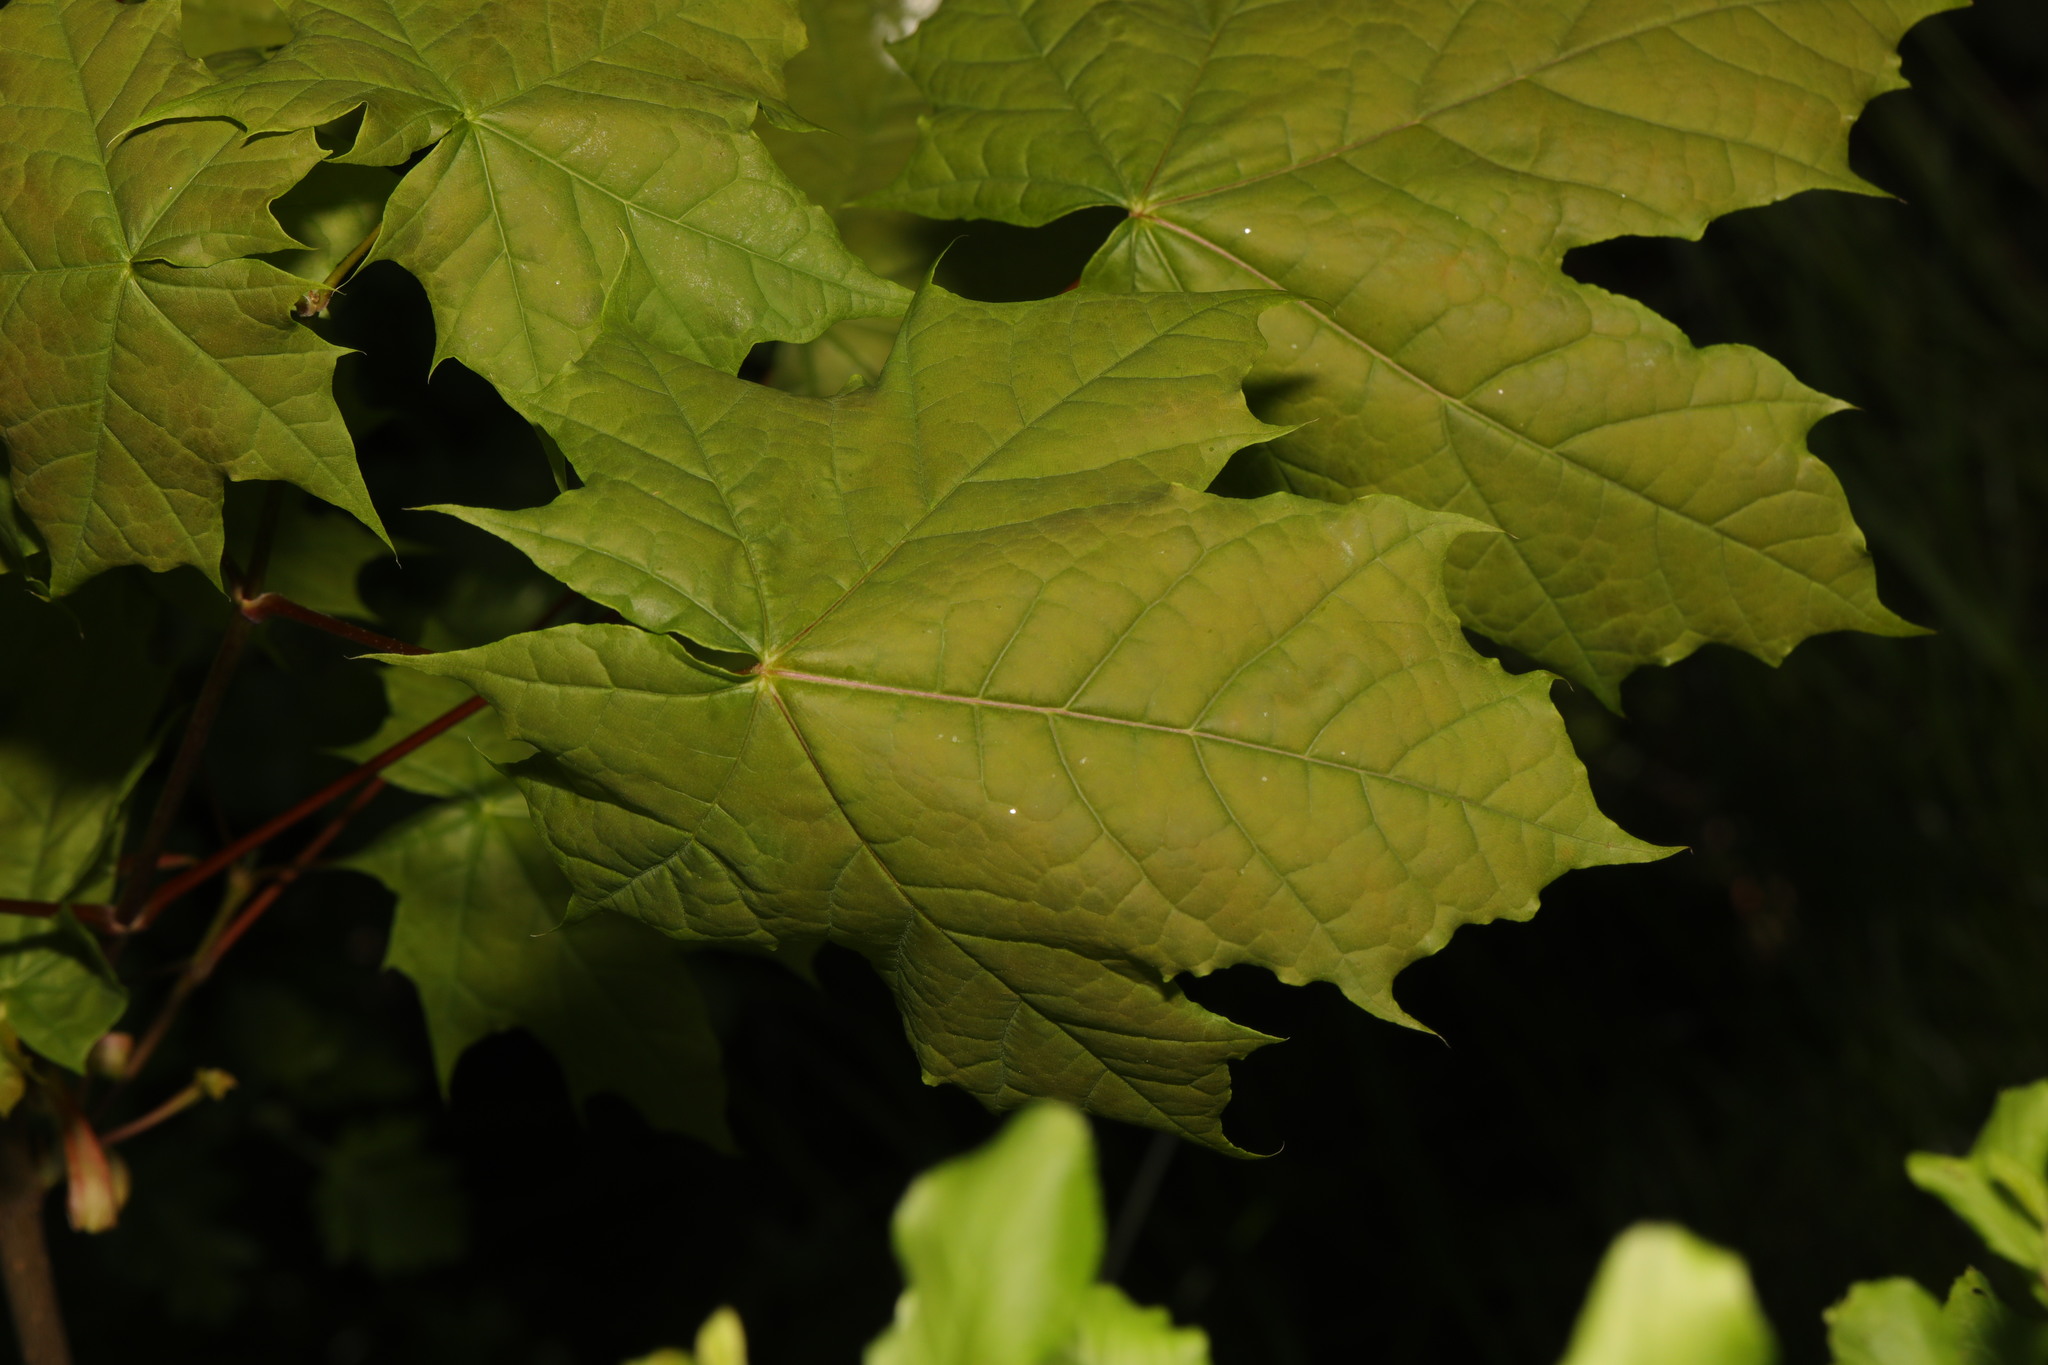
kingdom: Plantae
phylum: Tracheophyta
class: Magnoliopsida
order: Sapindales
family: Sapindaceae
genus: Acer
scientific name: Acer platanoides
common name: Norway maple
